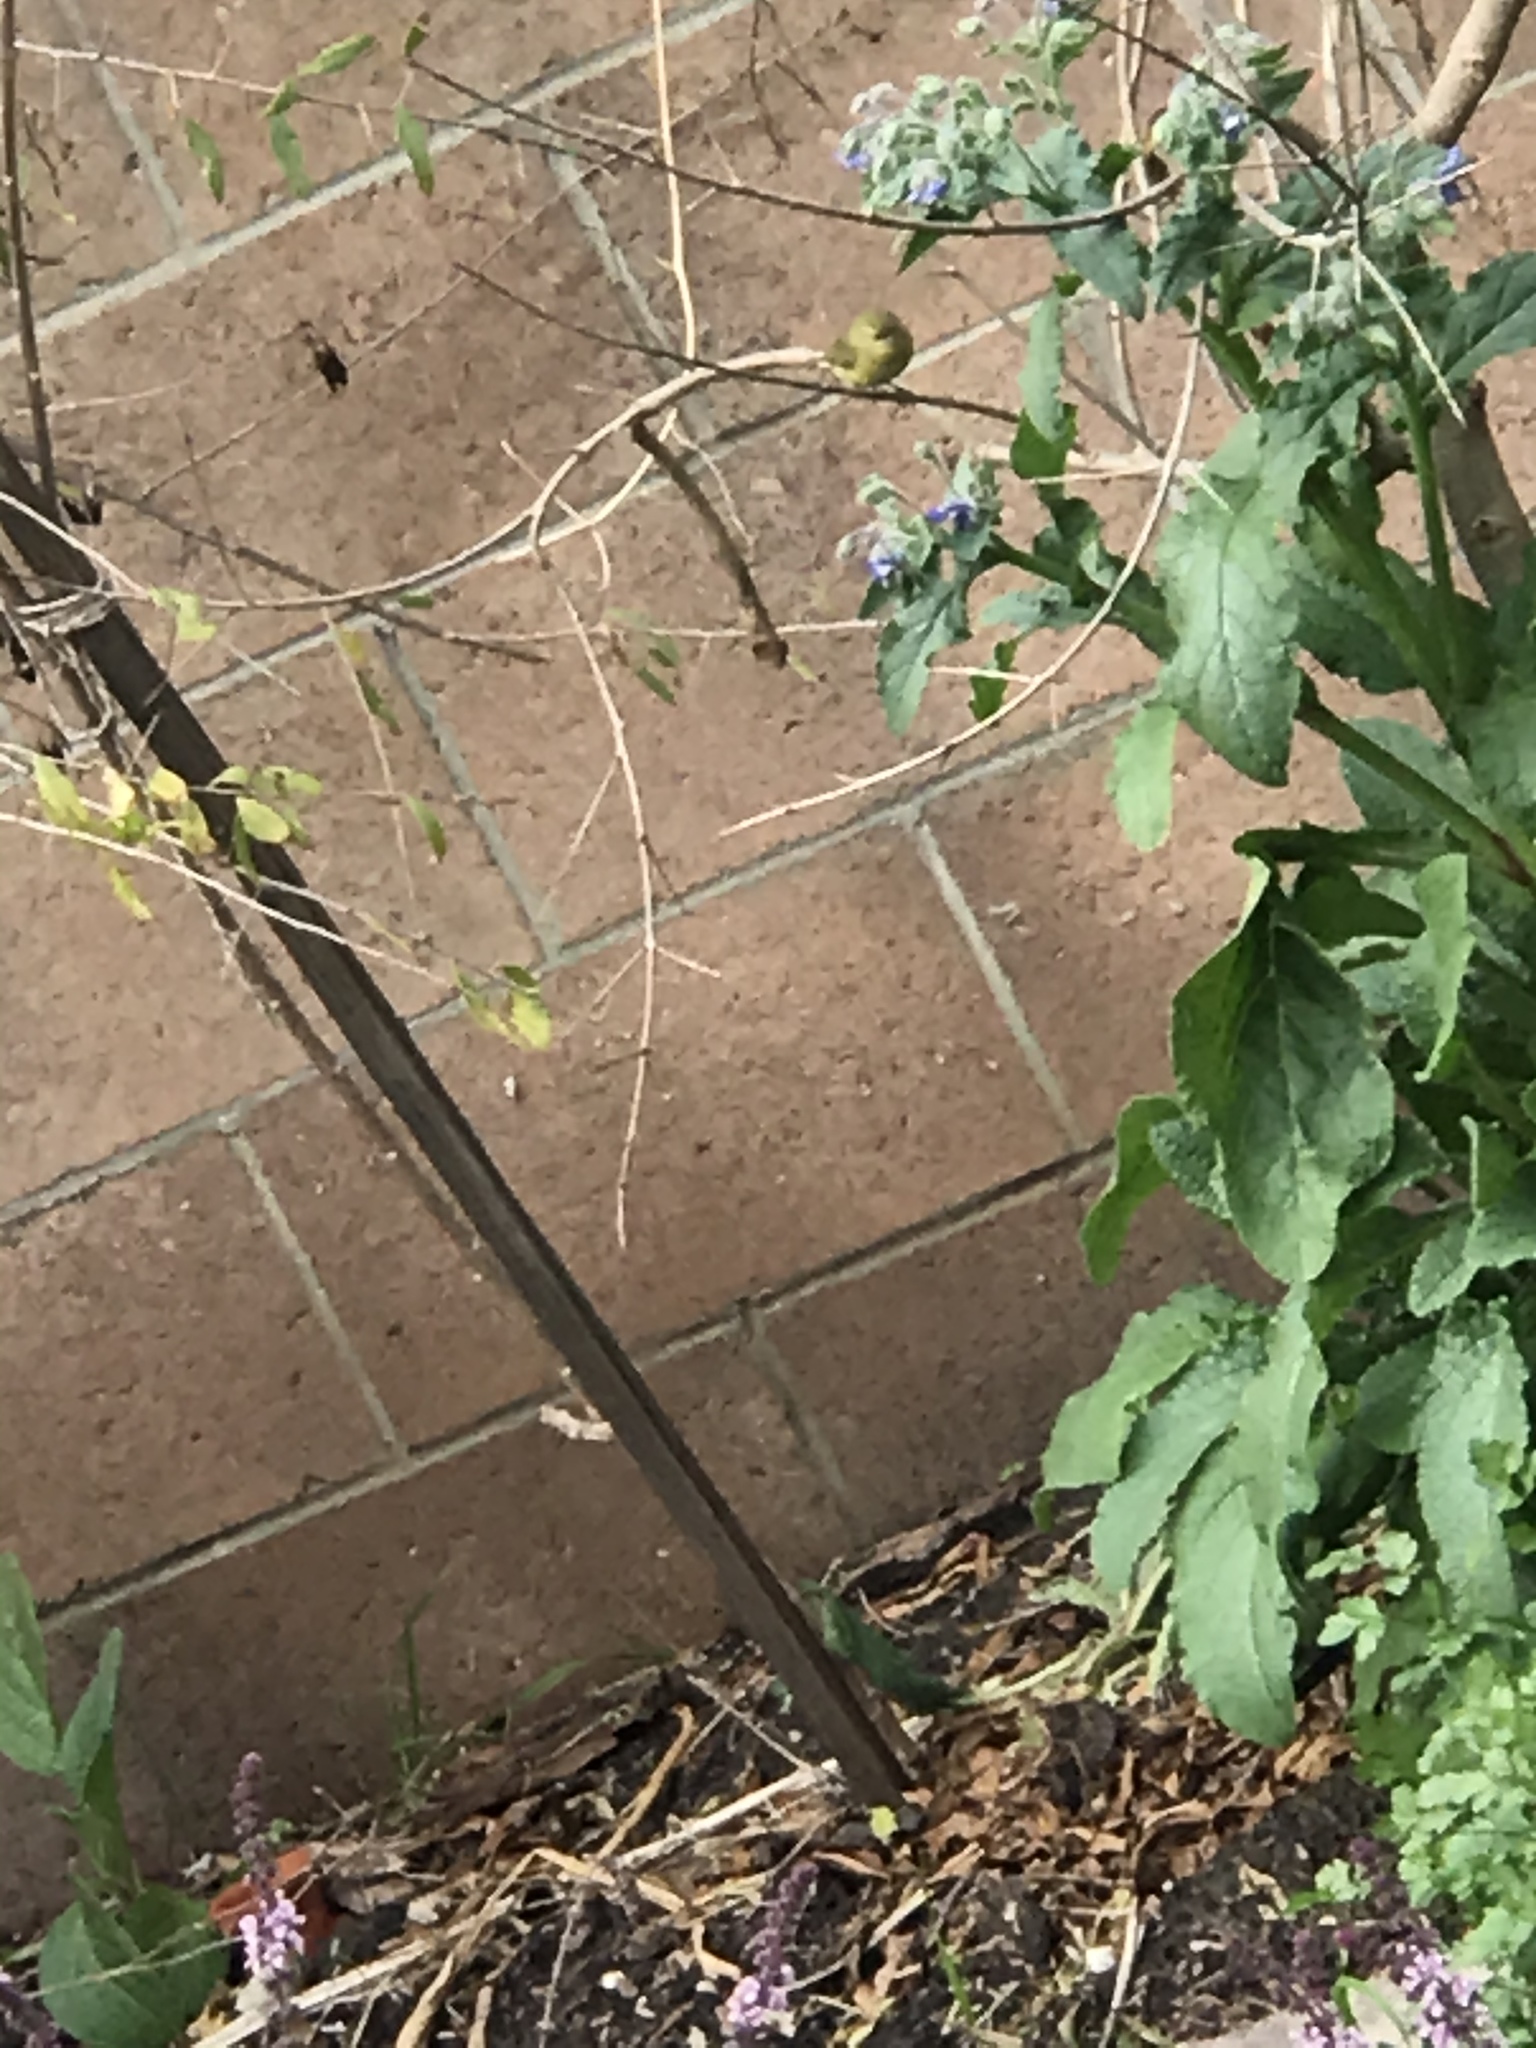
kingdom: Animalia
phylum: Chordata
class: Aves
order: Passeriformes
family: Parulidae
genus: Leiothlypis
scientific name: Leiothlypis celata
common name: Orange-crowned warbler
